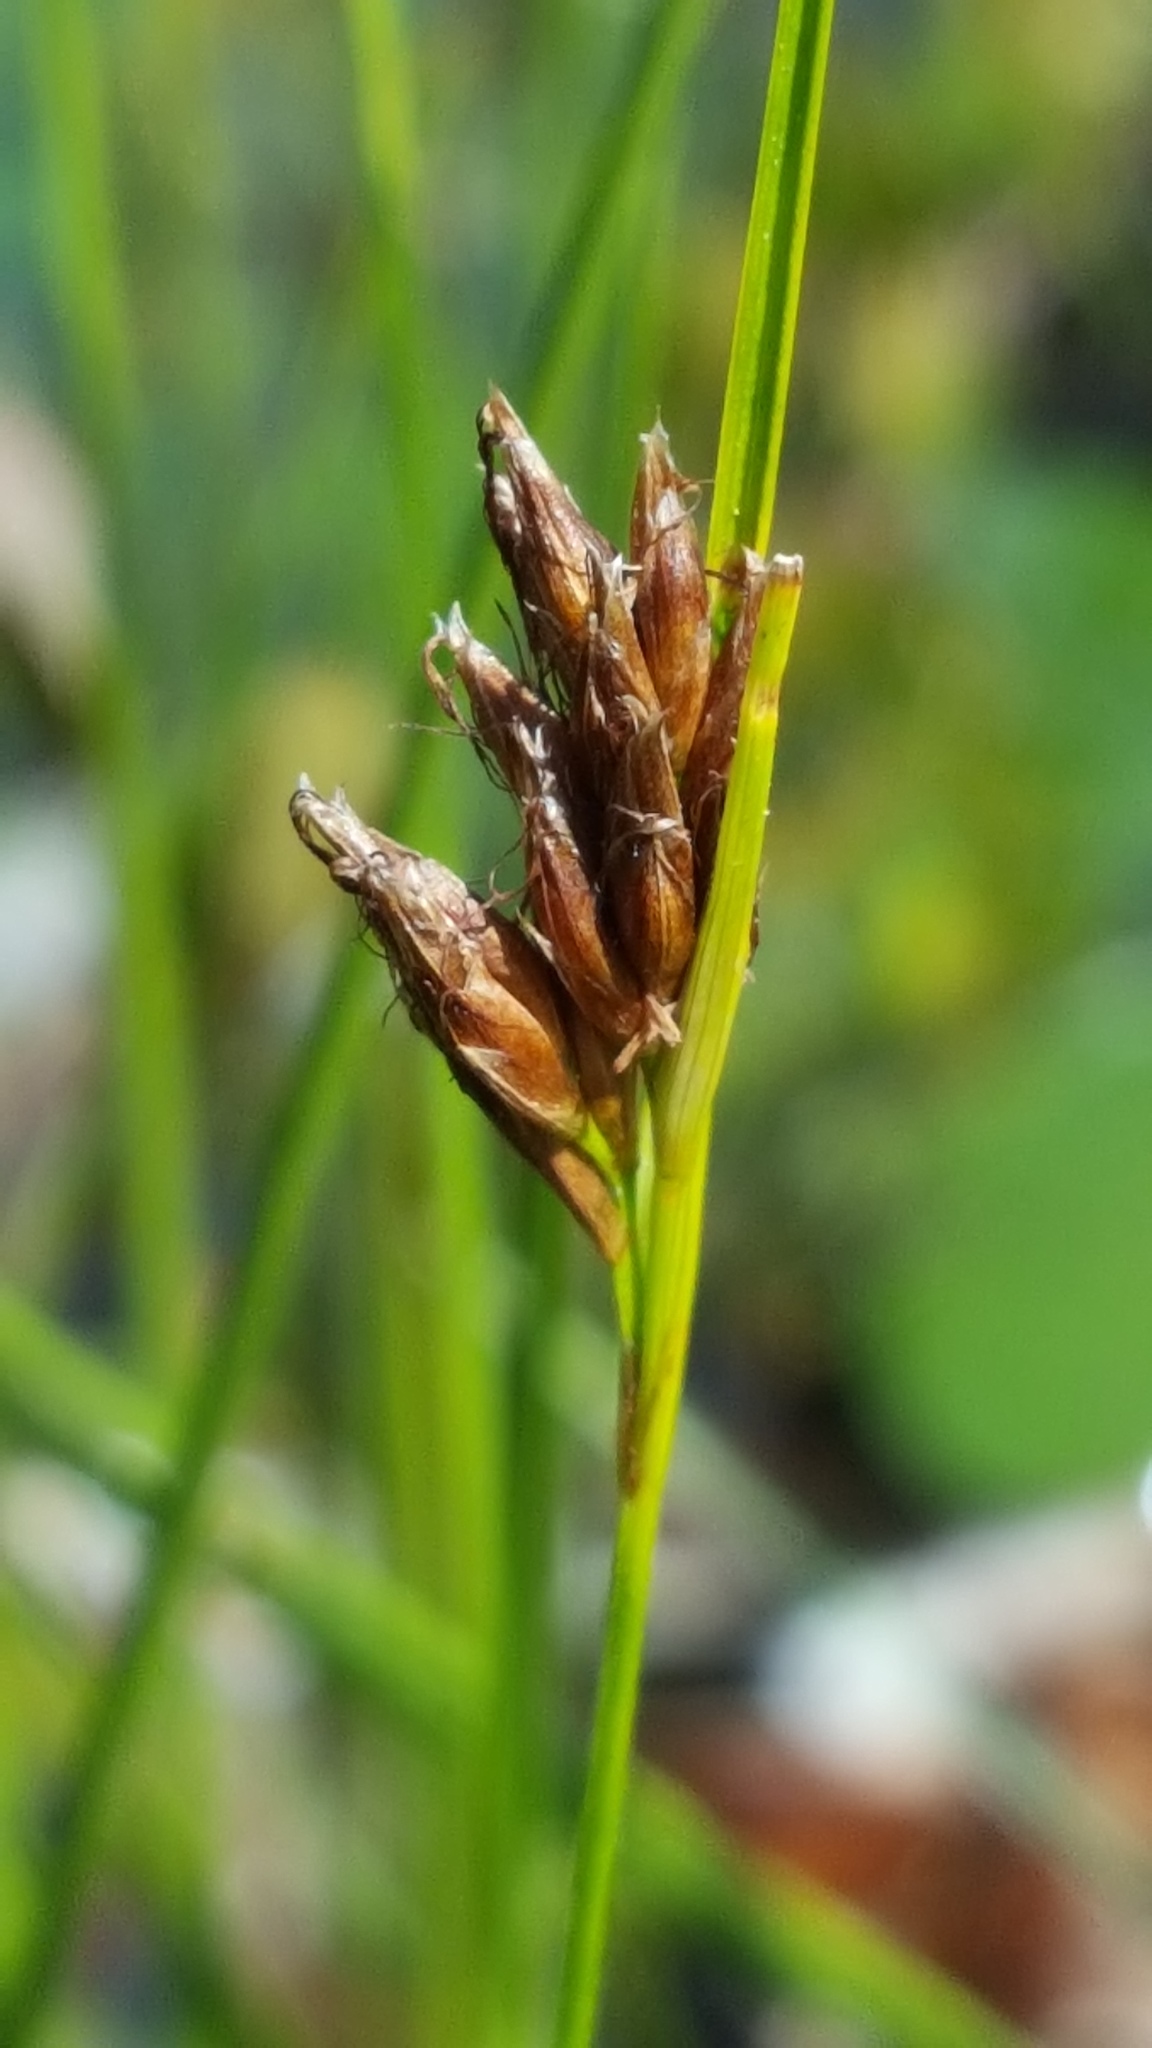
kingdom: Plantae
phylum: Tracheophyta
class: Liliopsida
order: Poales
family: Cyperaceae
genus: Rhynchospora
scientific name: Rhynchospora fusca
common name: Brown beak-sedge
